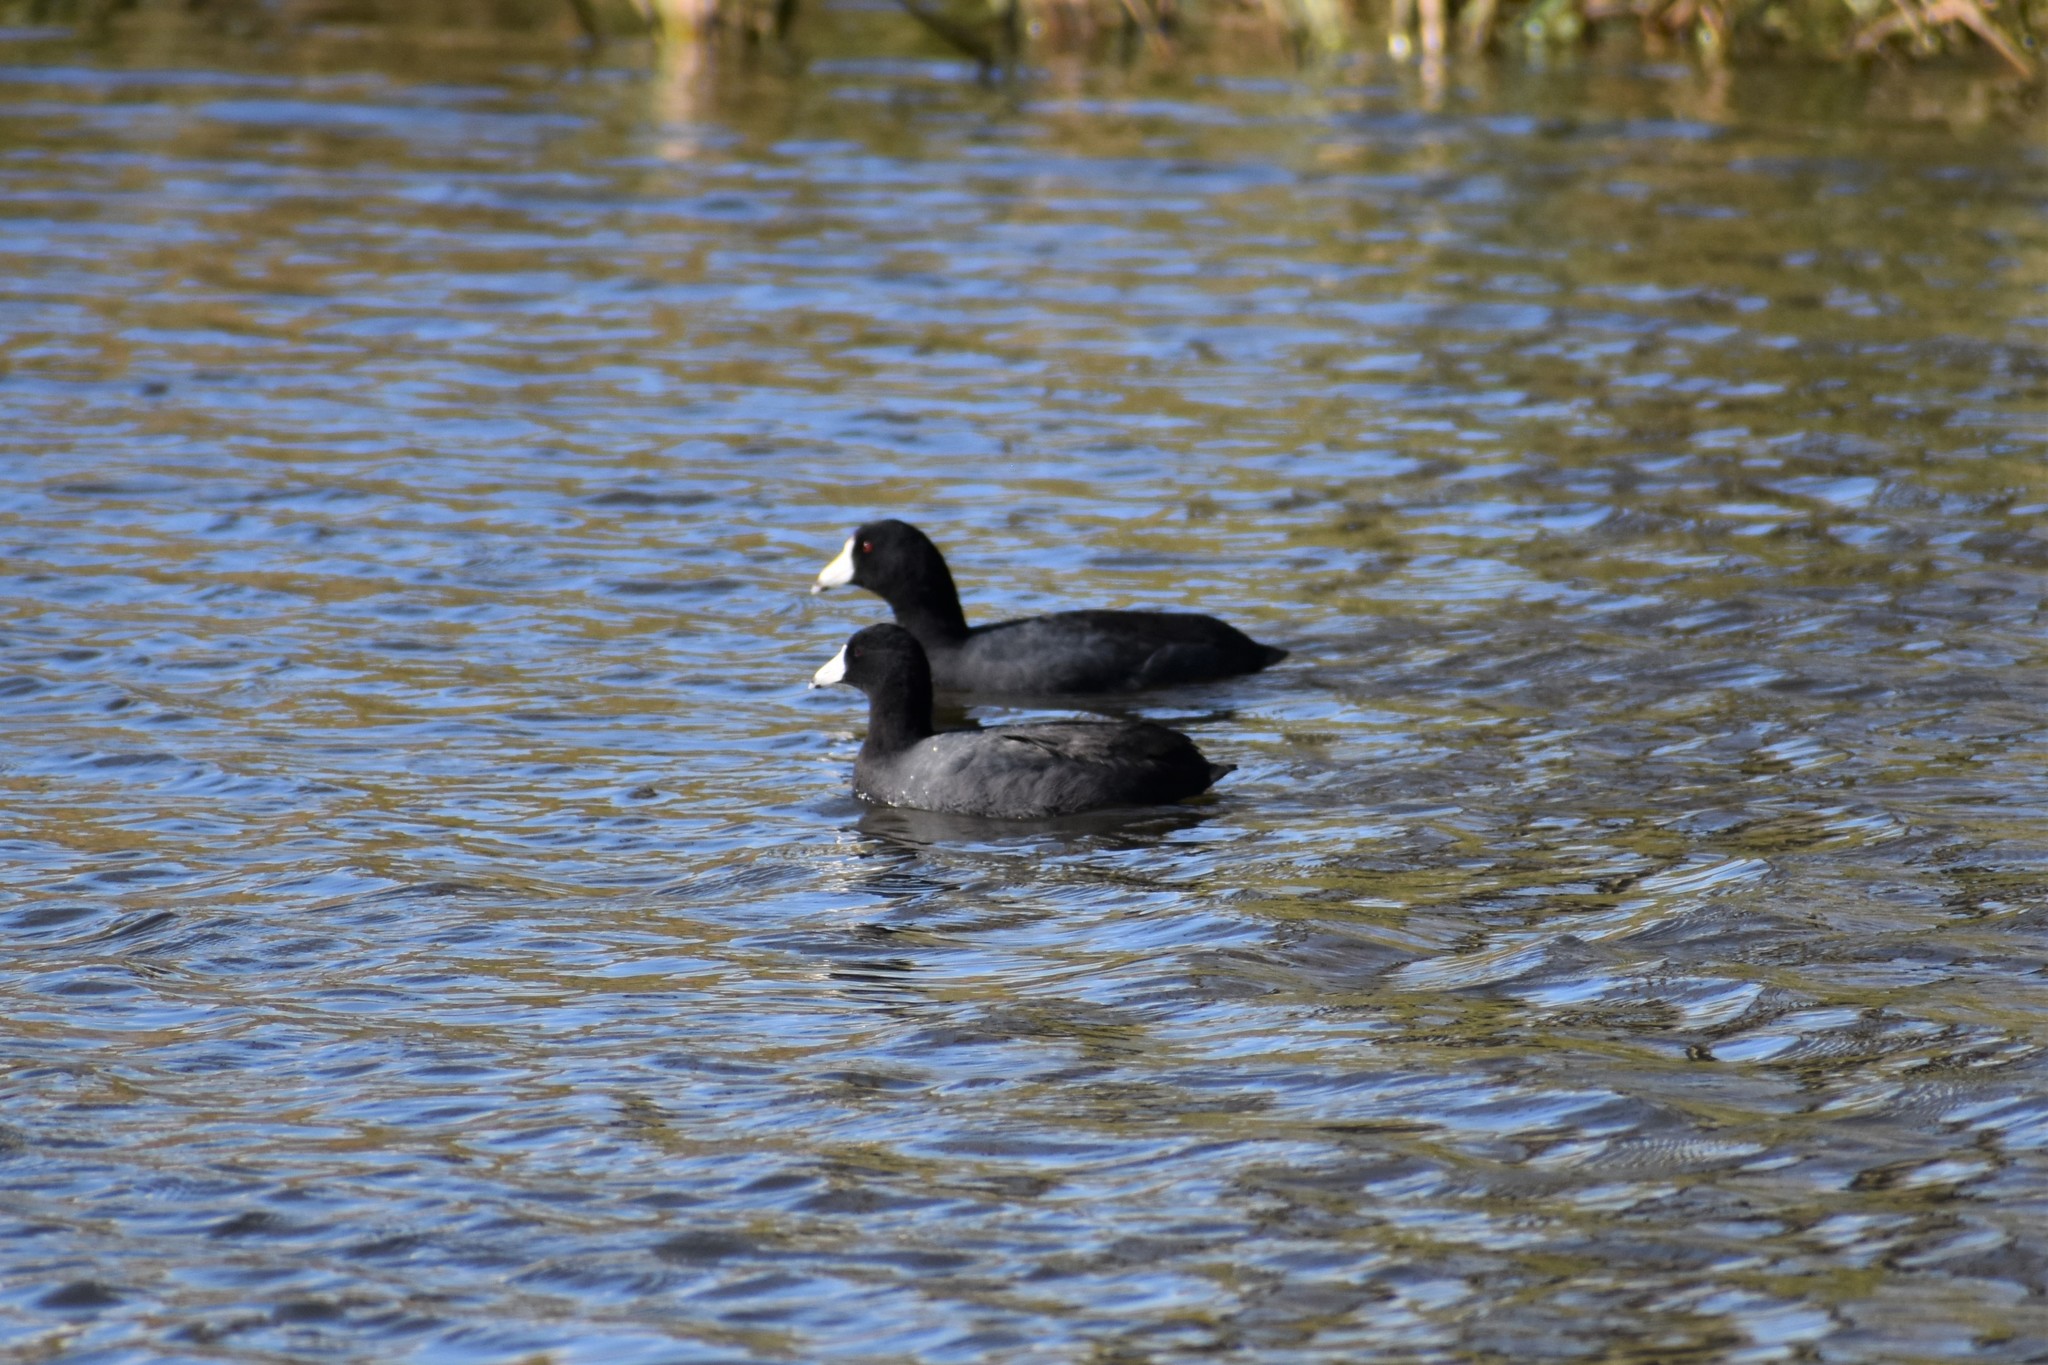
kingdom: Animalia
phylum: Chordata
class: Aves
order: Gruiformes
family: Rallidae
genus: Fulica
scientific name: Fulica americana
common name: American coot
